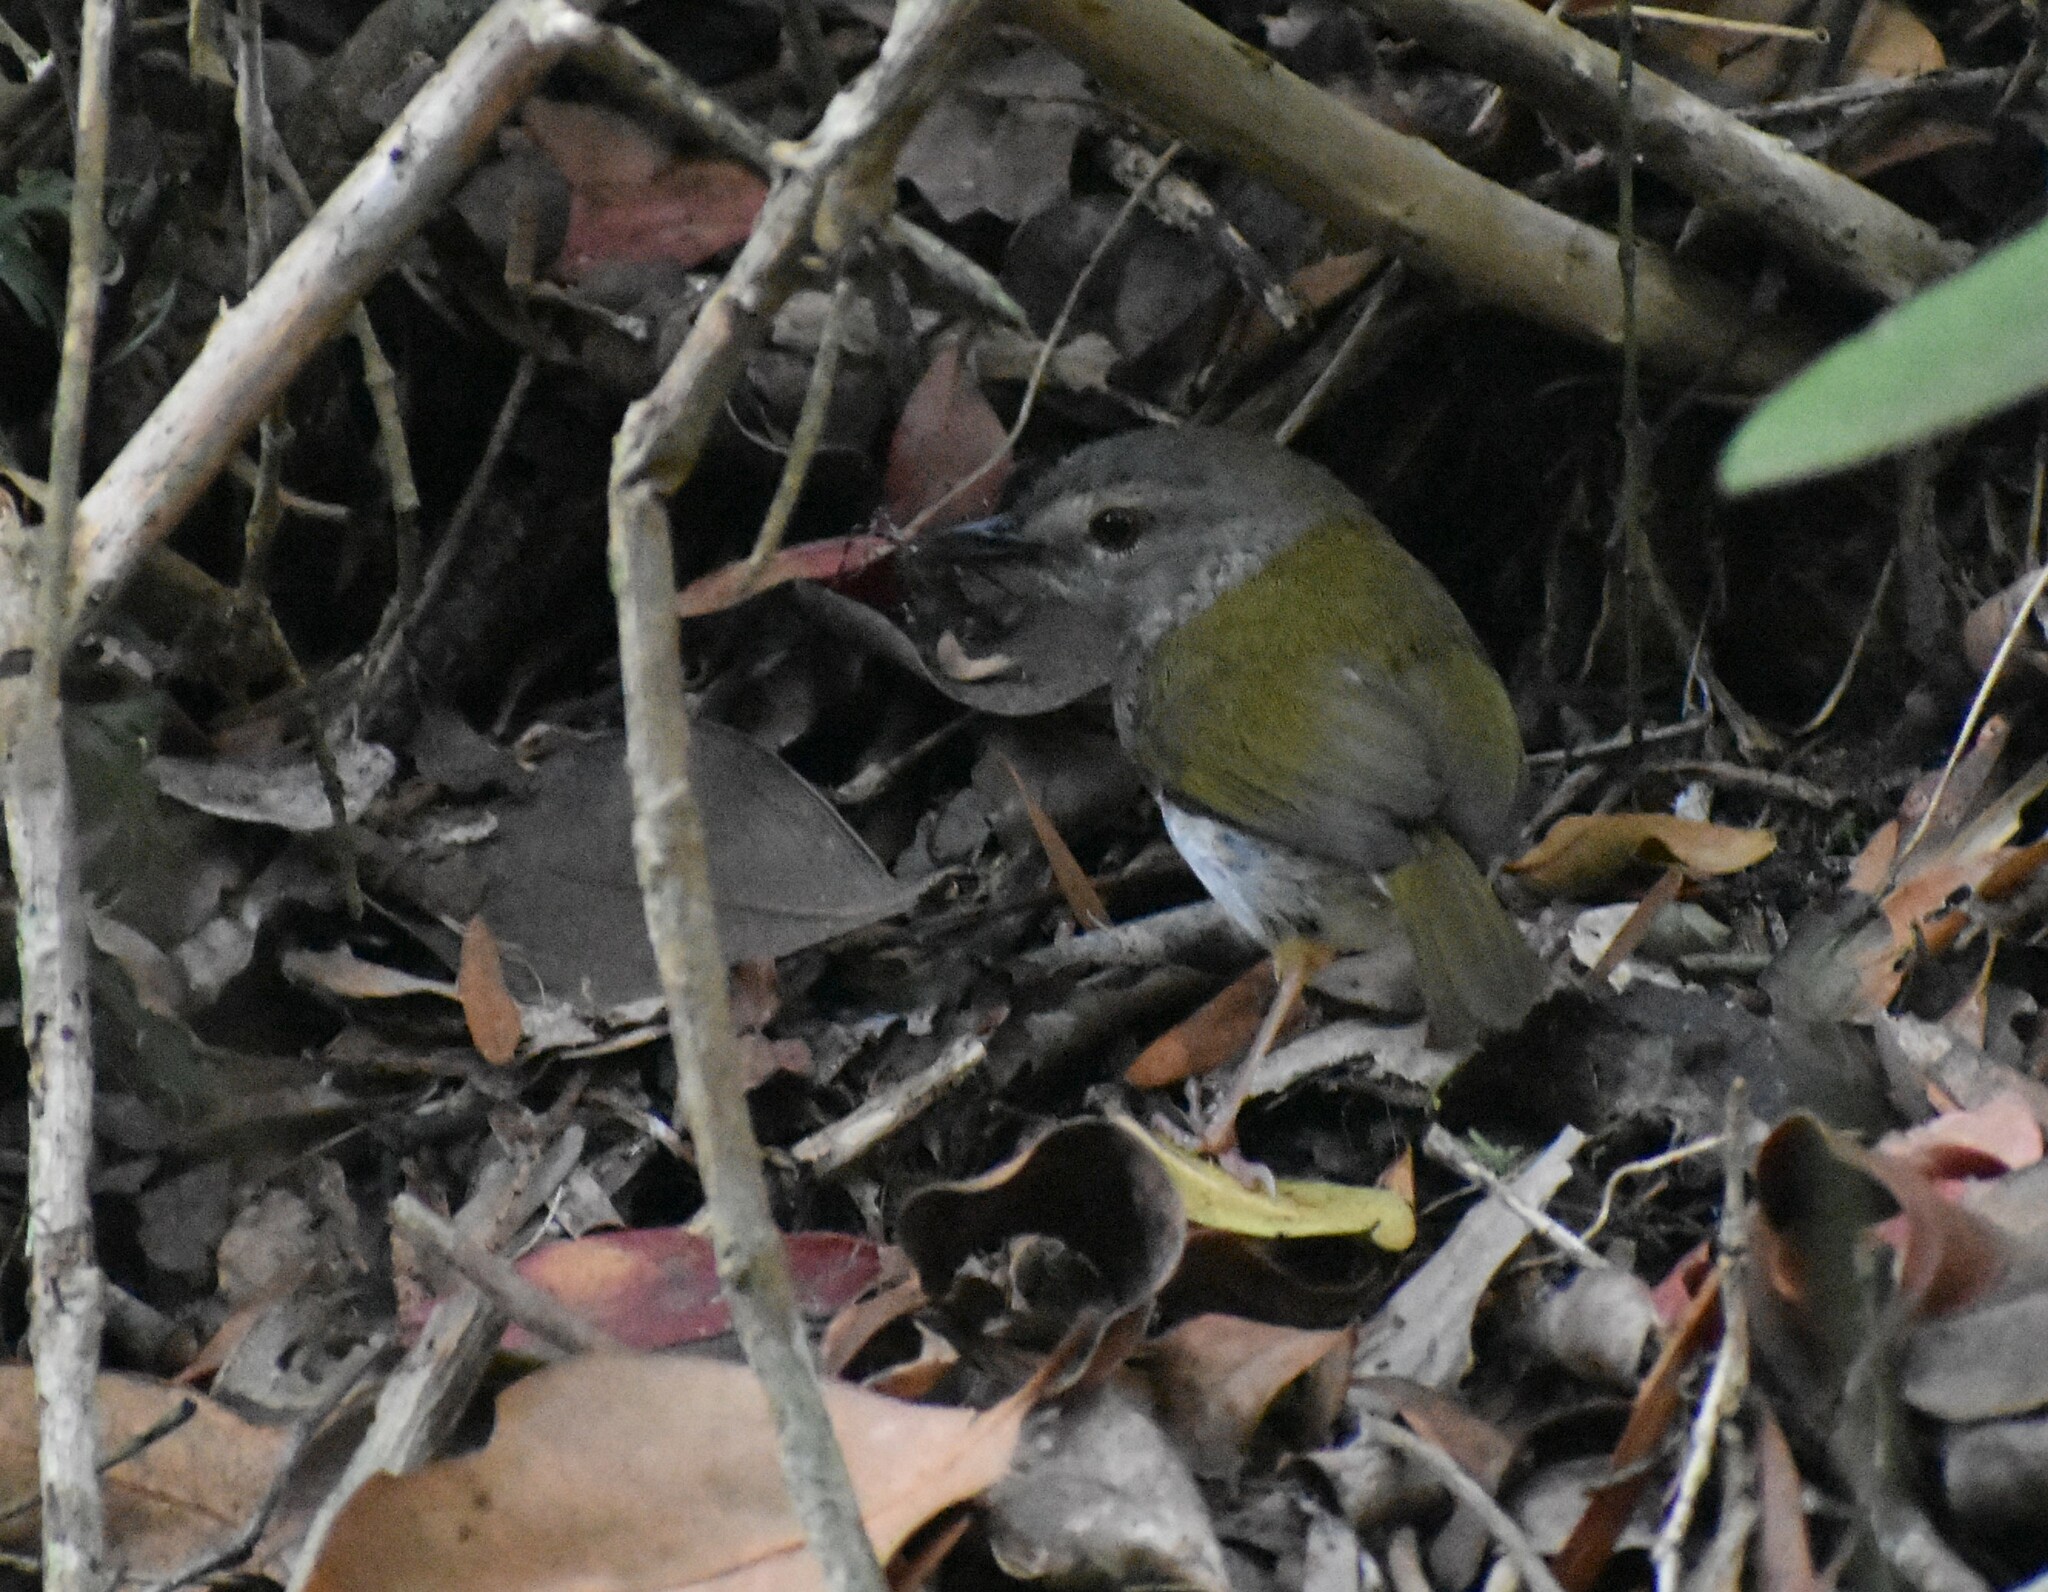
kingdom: Animalia
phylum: Chordata
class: Aves
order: Passeriformes
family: Cisticolidae
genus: Camaroptera
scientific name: Camaroptera brachyura
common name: Green-backed camaroptera
